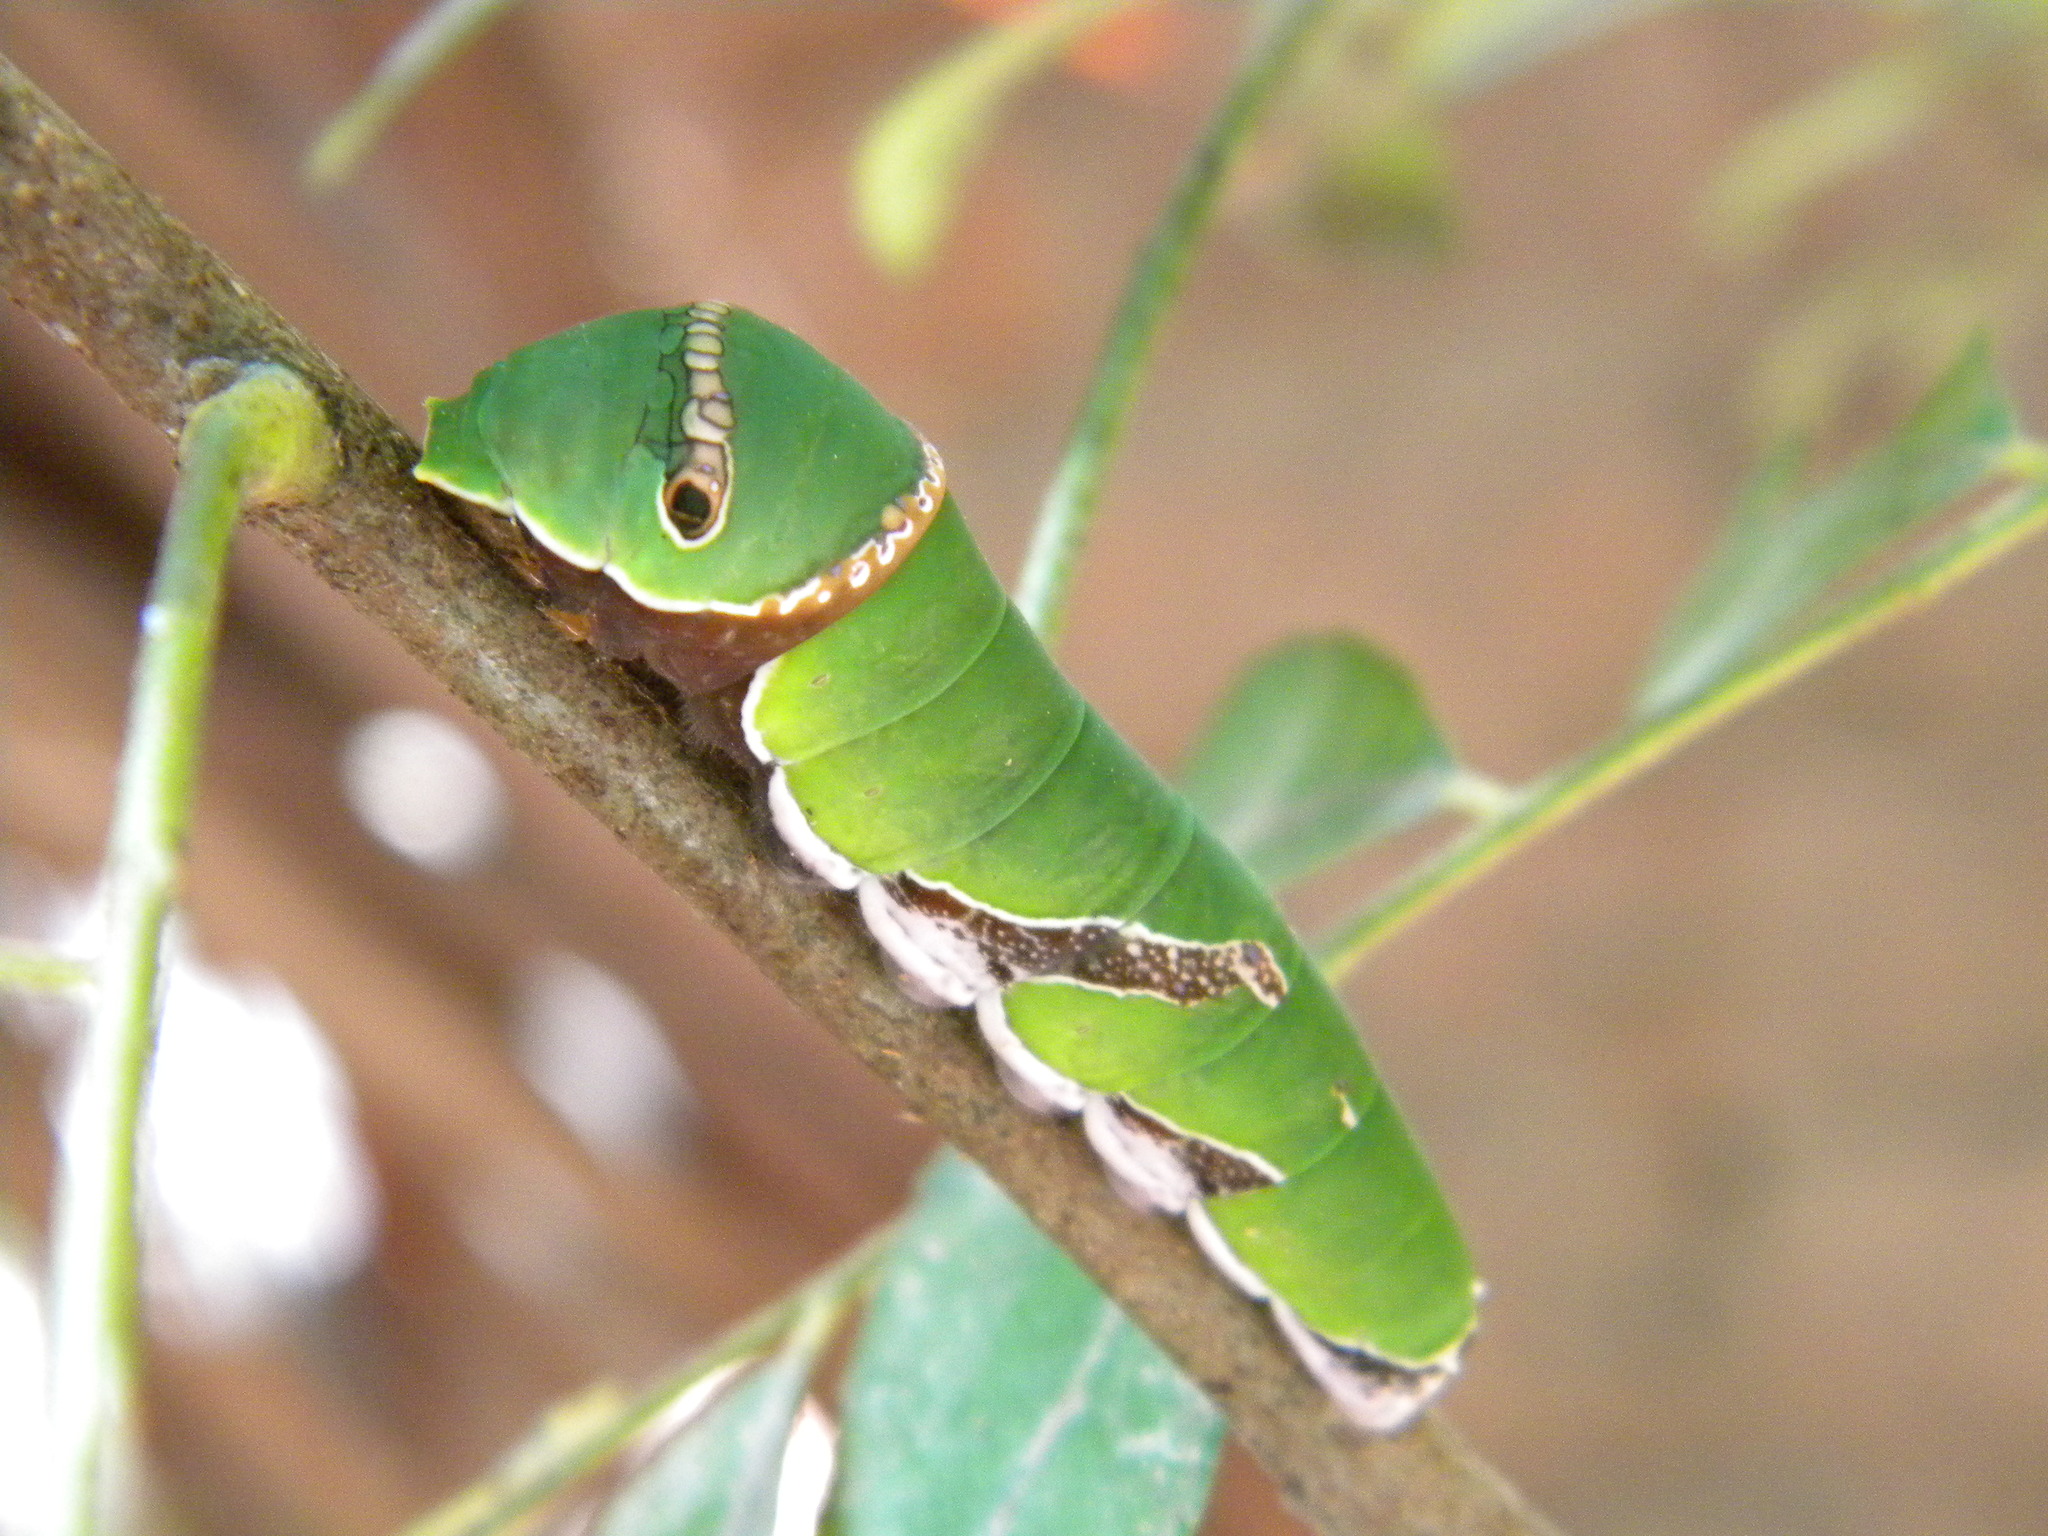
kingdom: Animalia
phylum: Arthropoda
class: Insecta
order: Lepidoptera
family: Papilionidae
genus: Papilio
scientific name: Papilio polytes
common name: Common mormon
